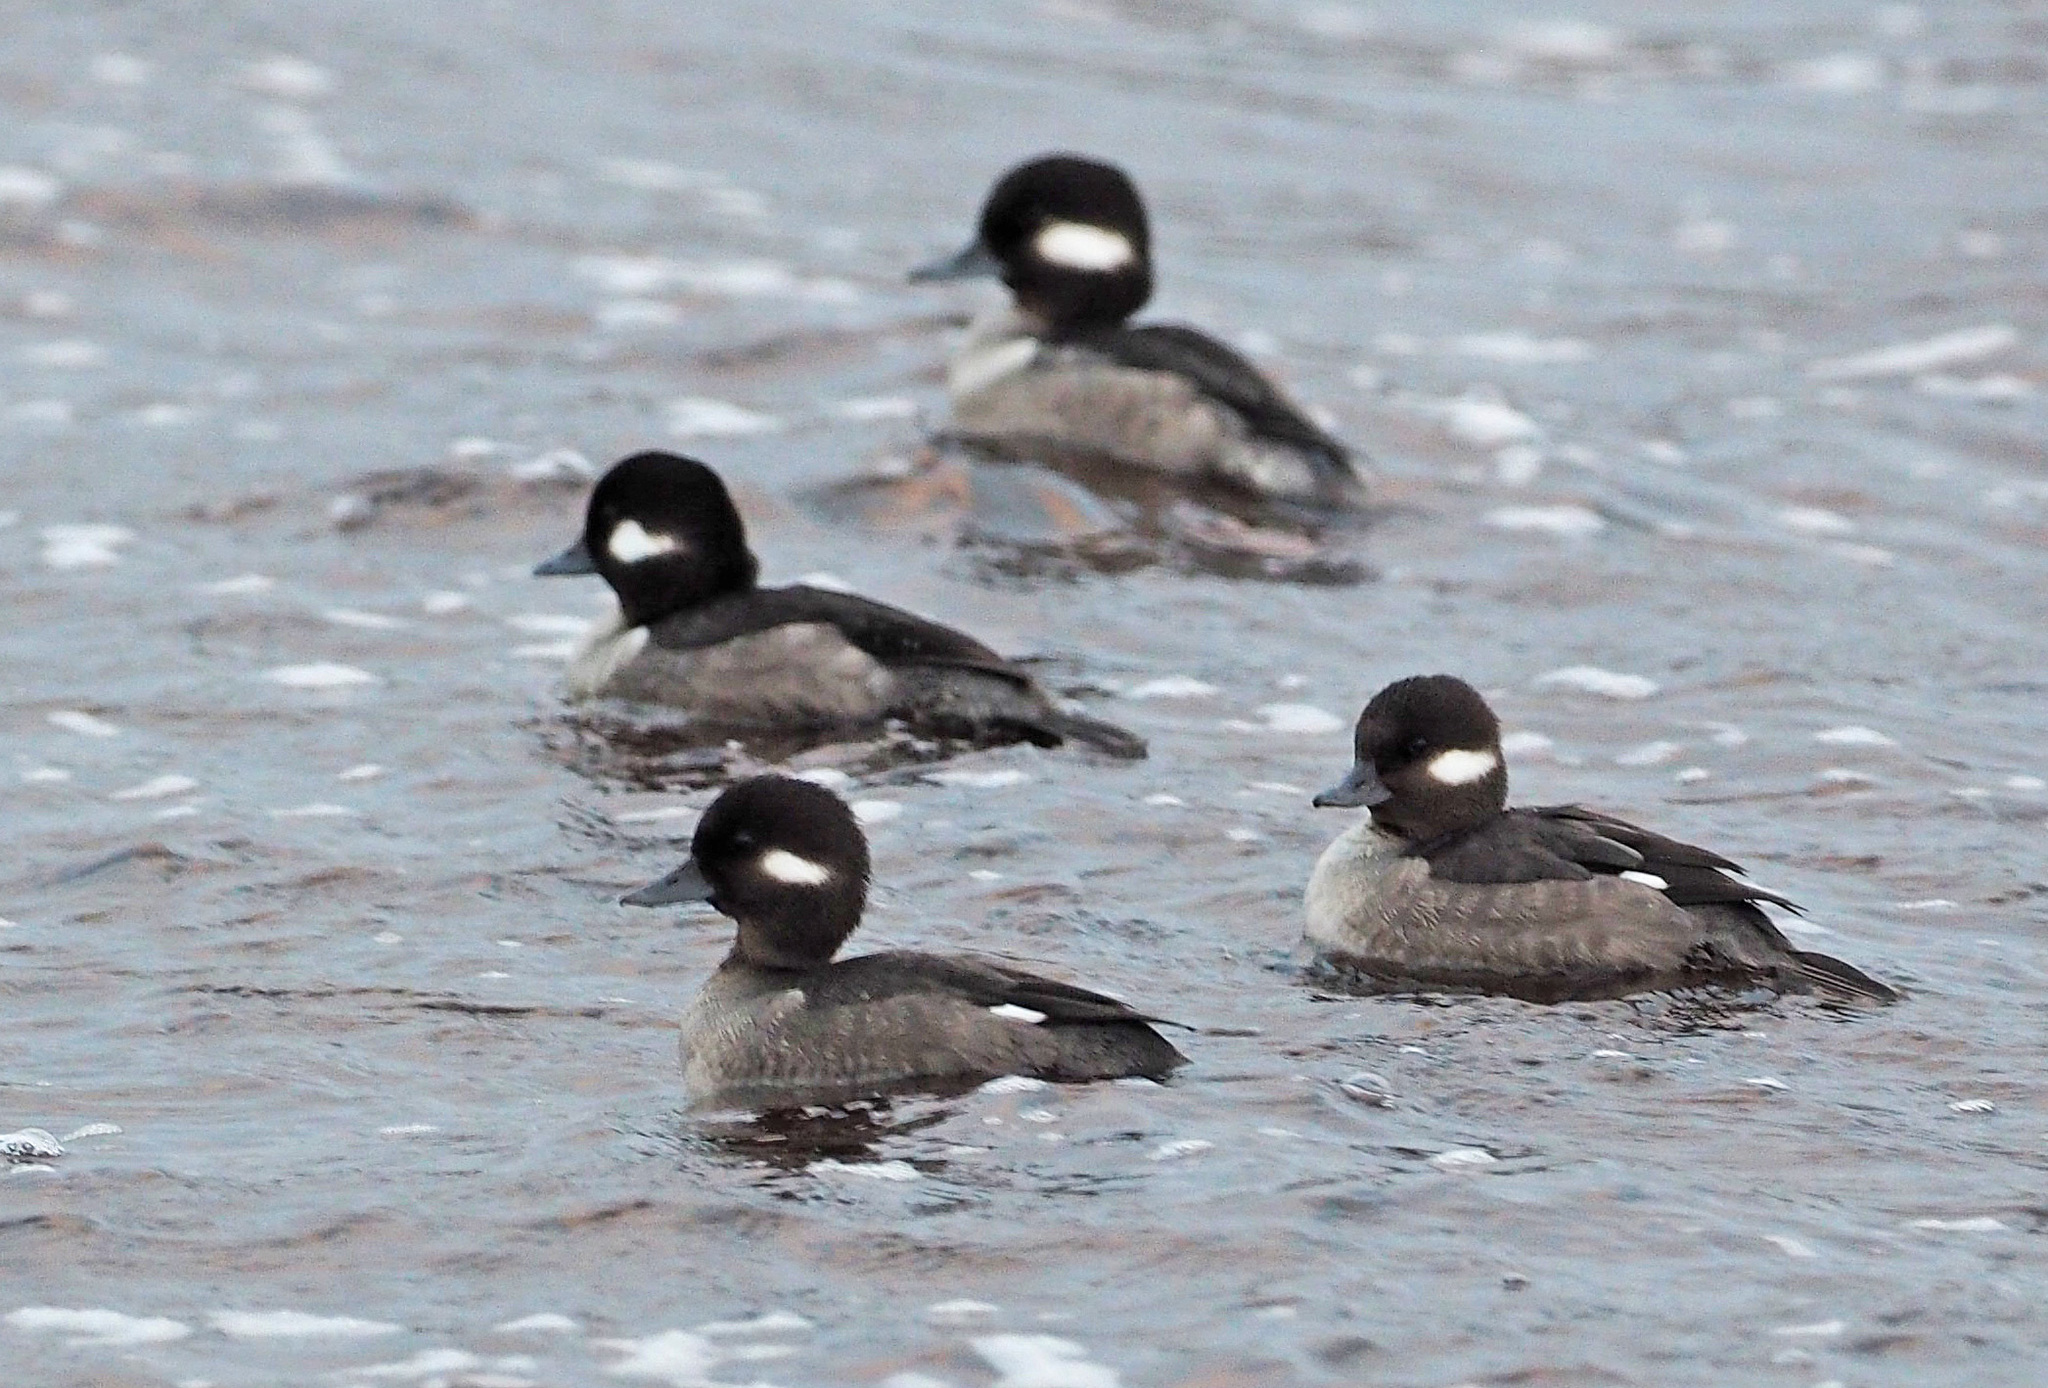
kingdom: Animalia
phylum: Chordata
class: Aves
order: Anseriformes
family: Anatidae
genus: Bucephala
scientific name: Bucephala albeola
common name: Bufflehead
